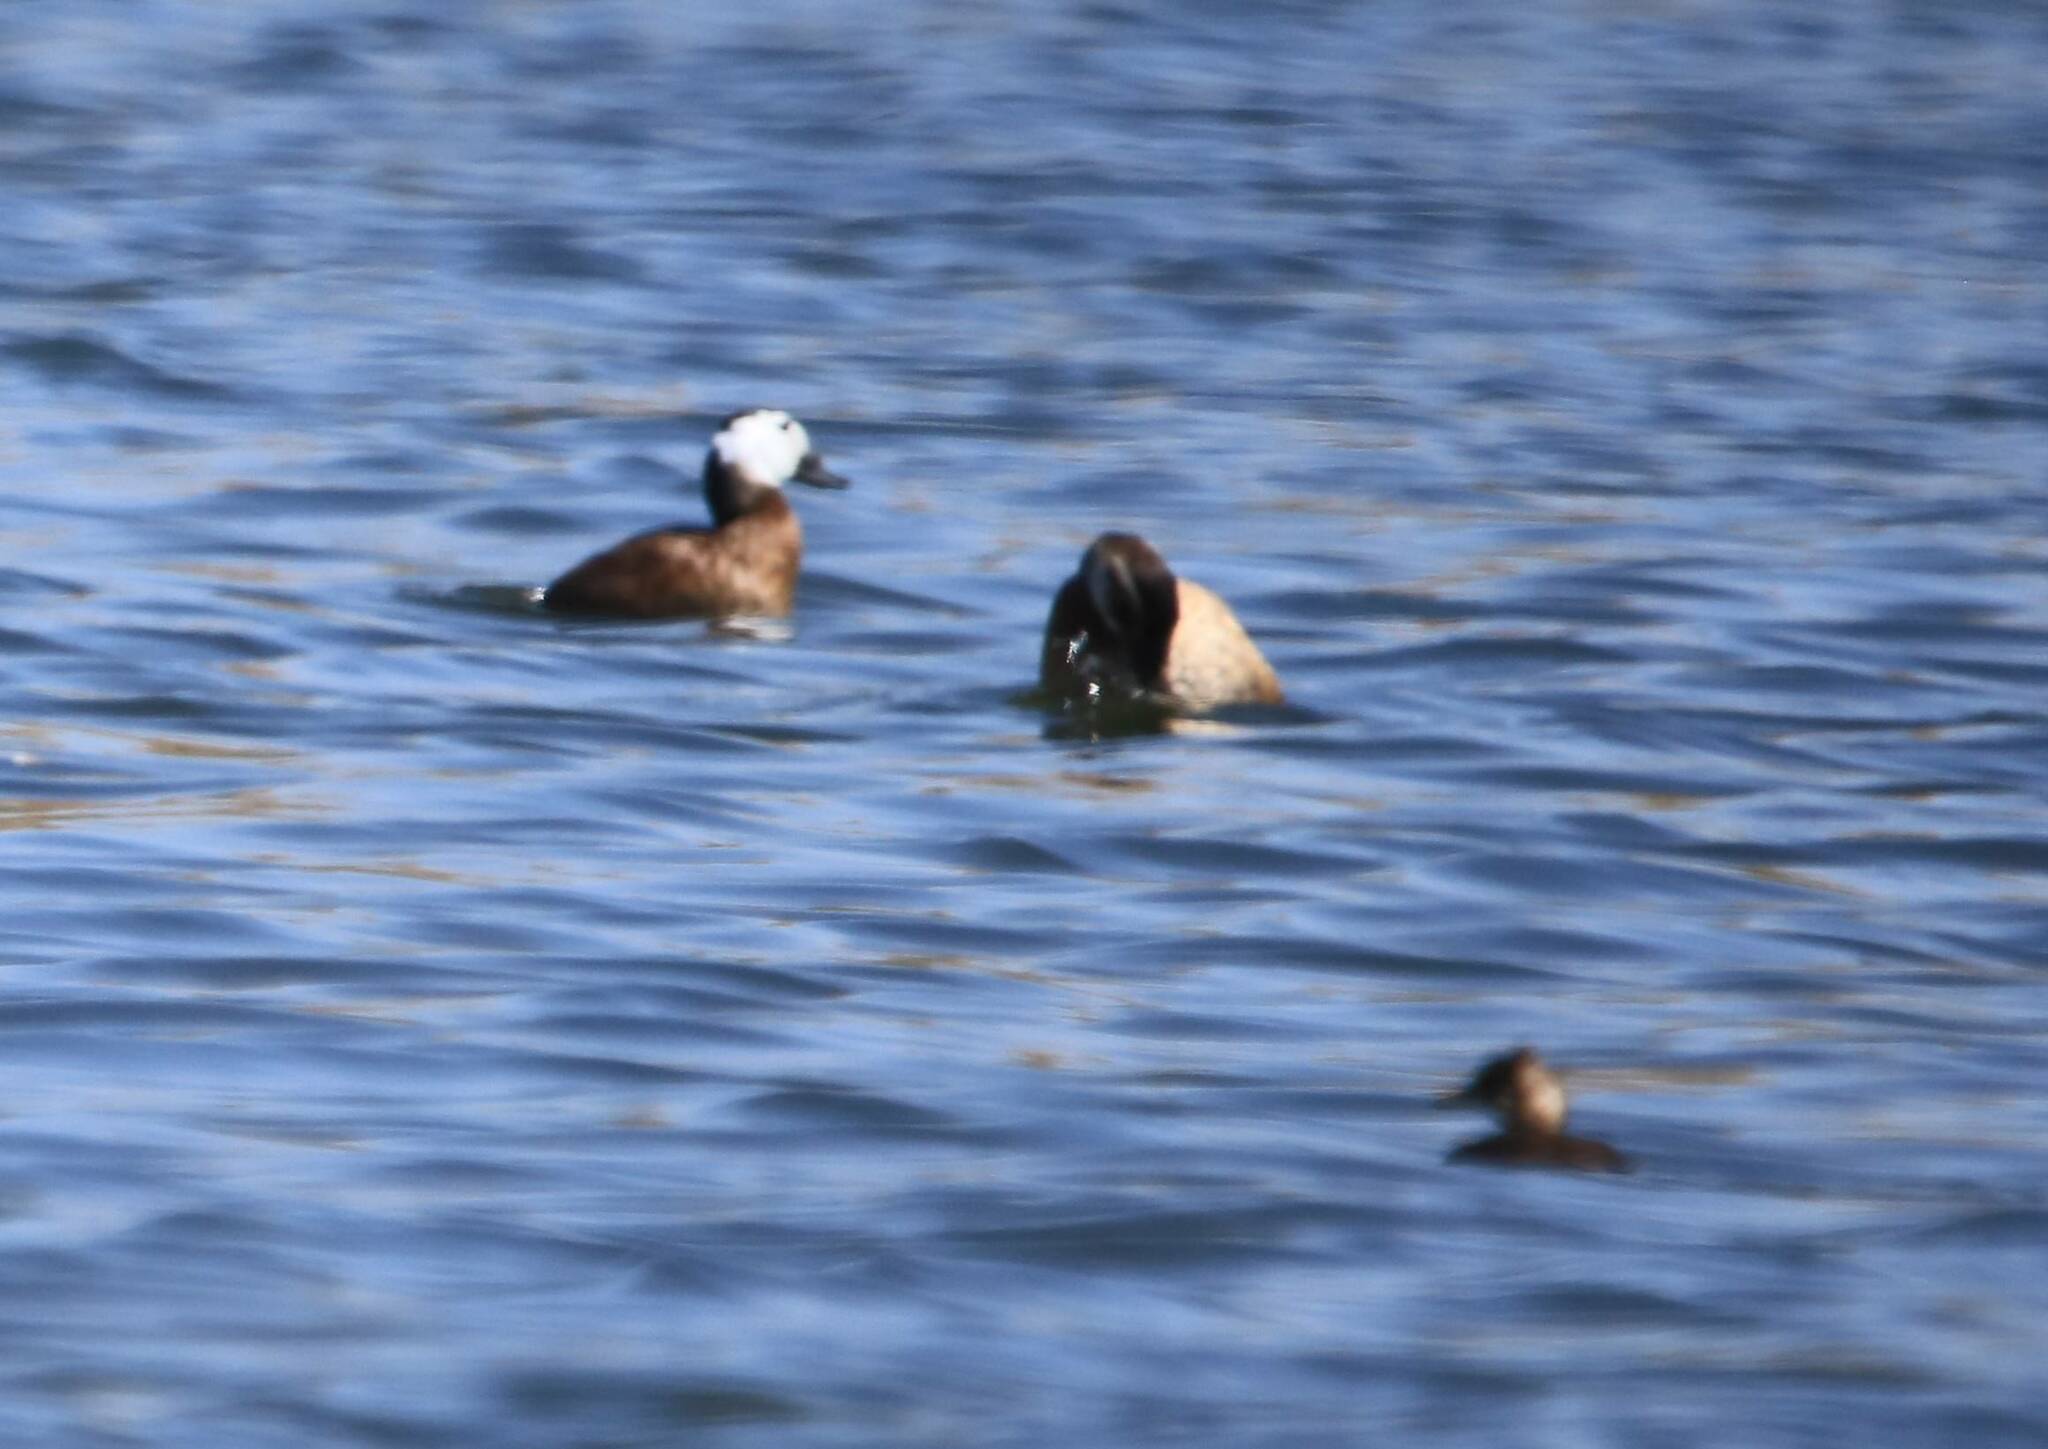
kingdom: Animalia
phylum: Chordata
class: Aves
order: Anseriformes
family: Anatidae
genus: Oxyura
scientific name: Oxyura leucocephala
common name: White-headed duck
